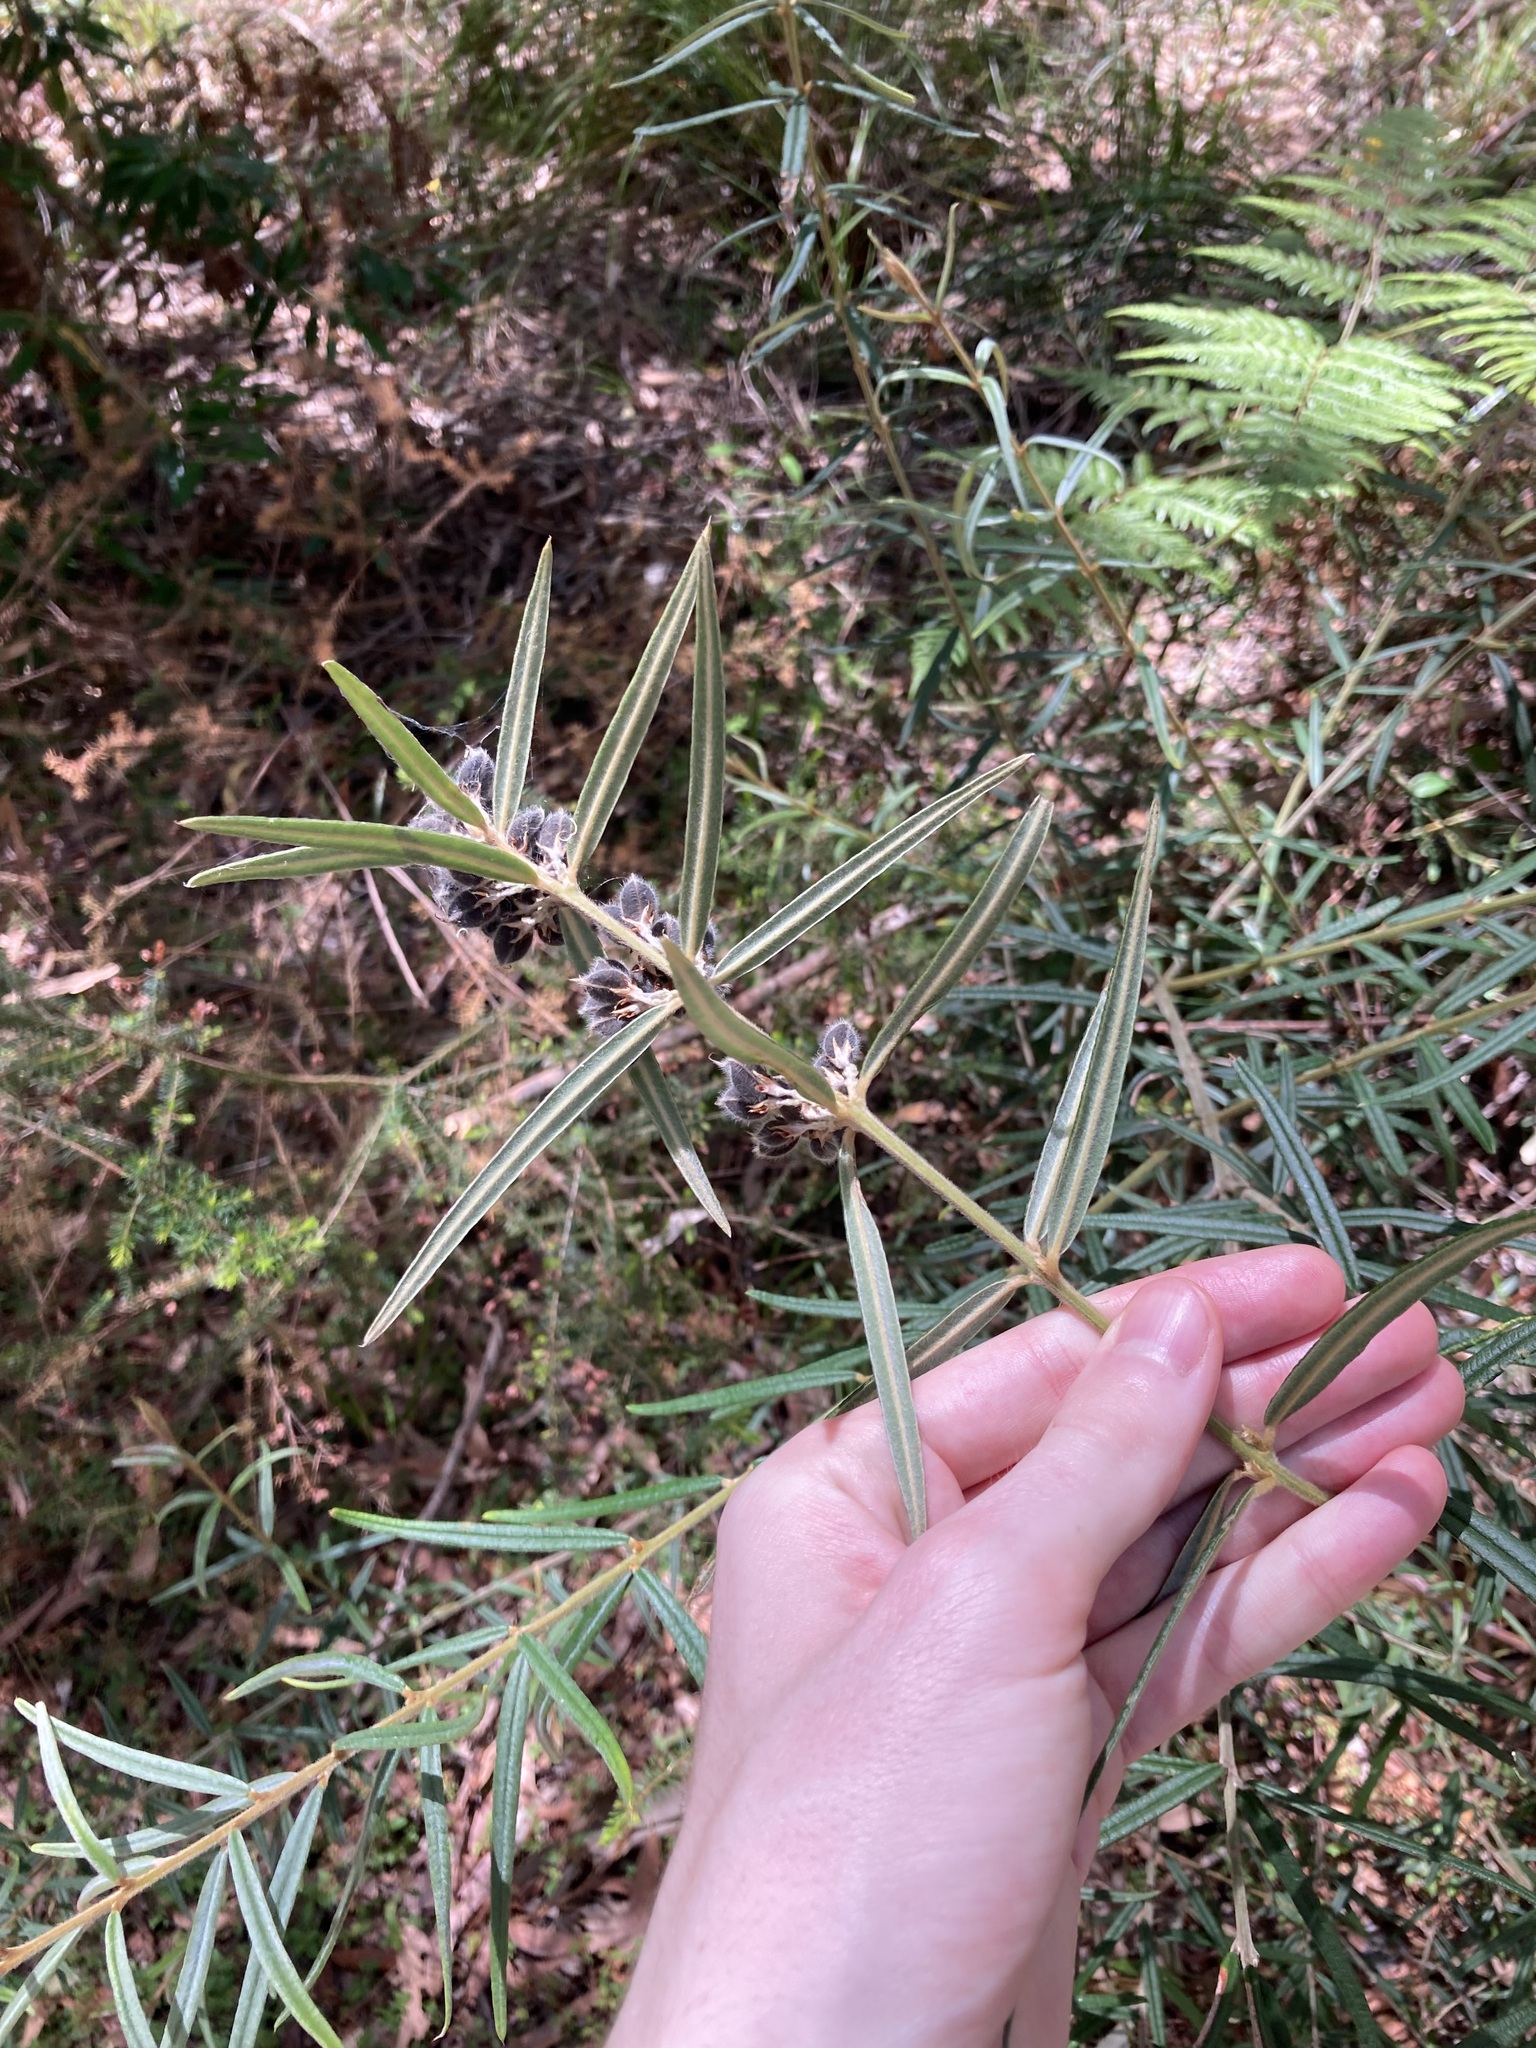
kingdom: Plantae
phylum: Tracheophyta
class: Magnoliopsida
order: Fabales
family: Fabaceae
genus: Oxylobium
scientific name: Oxylobium robustum
